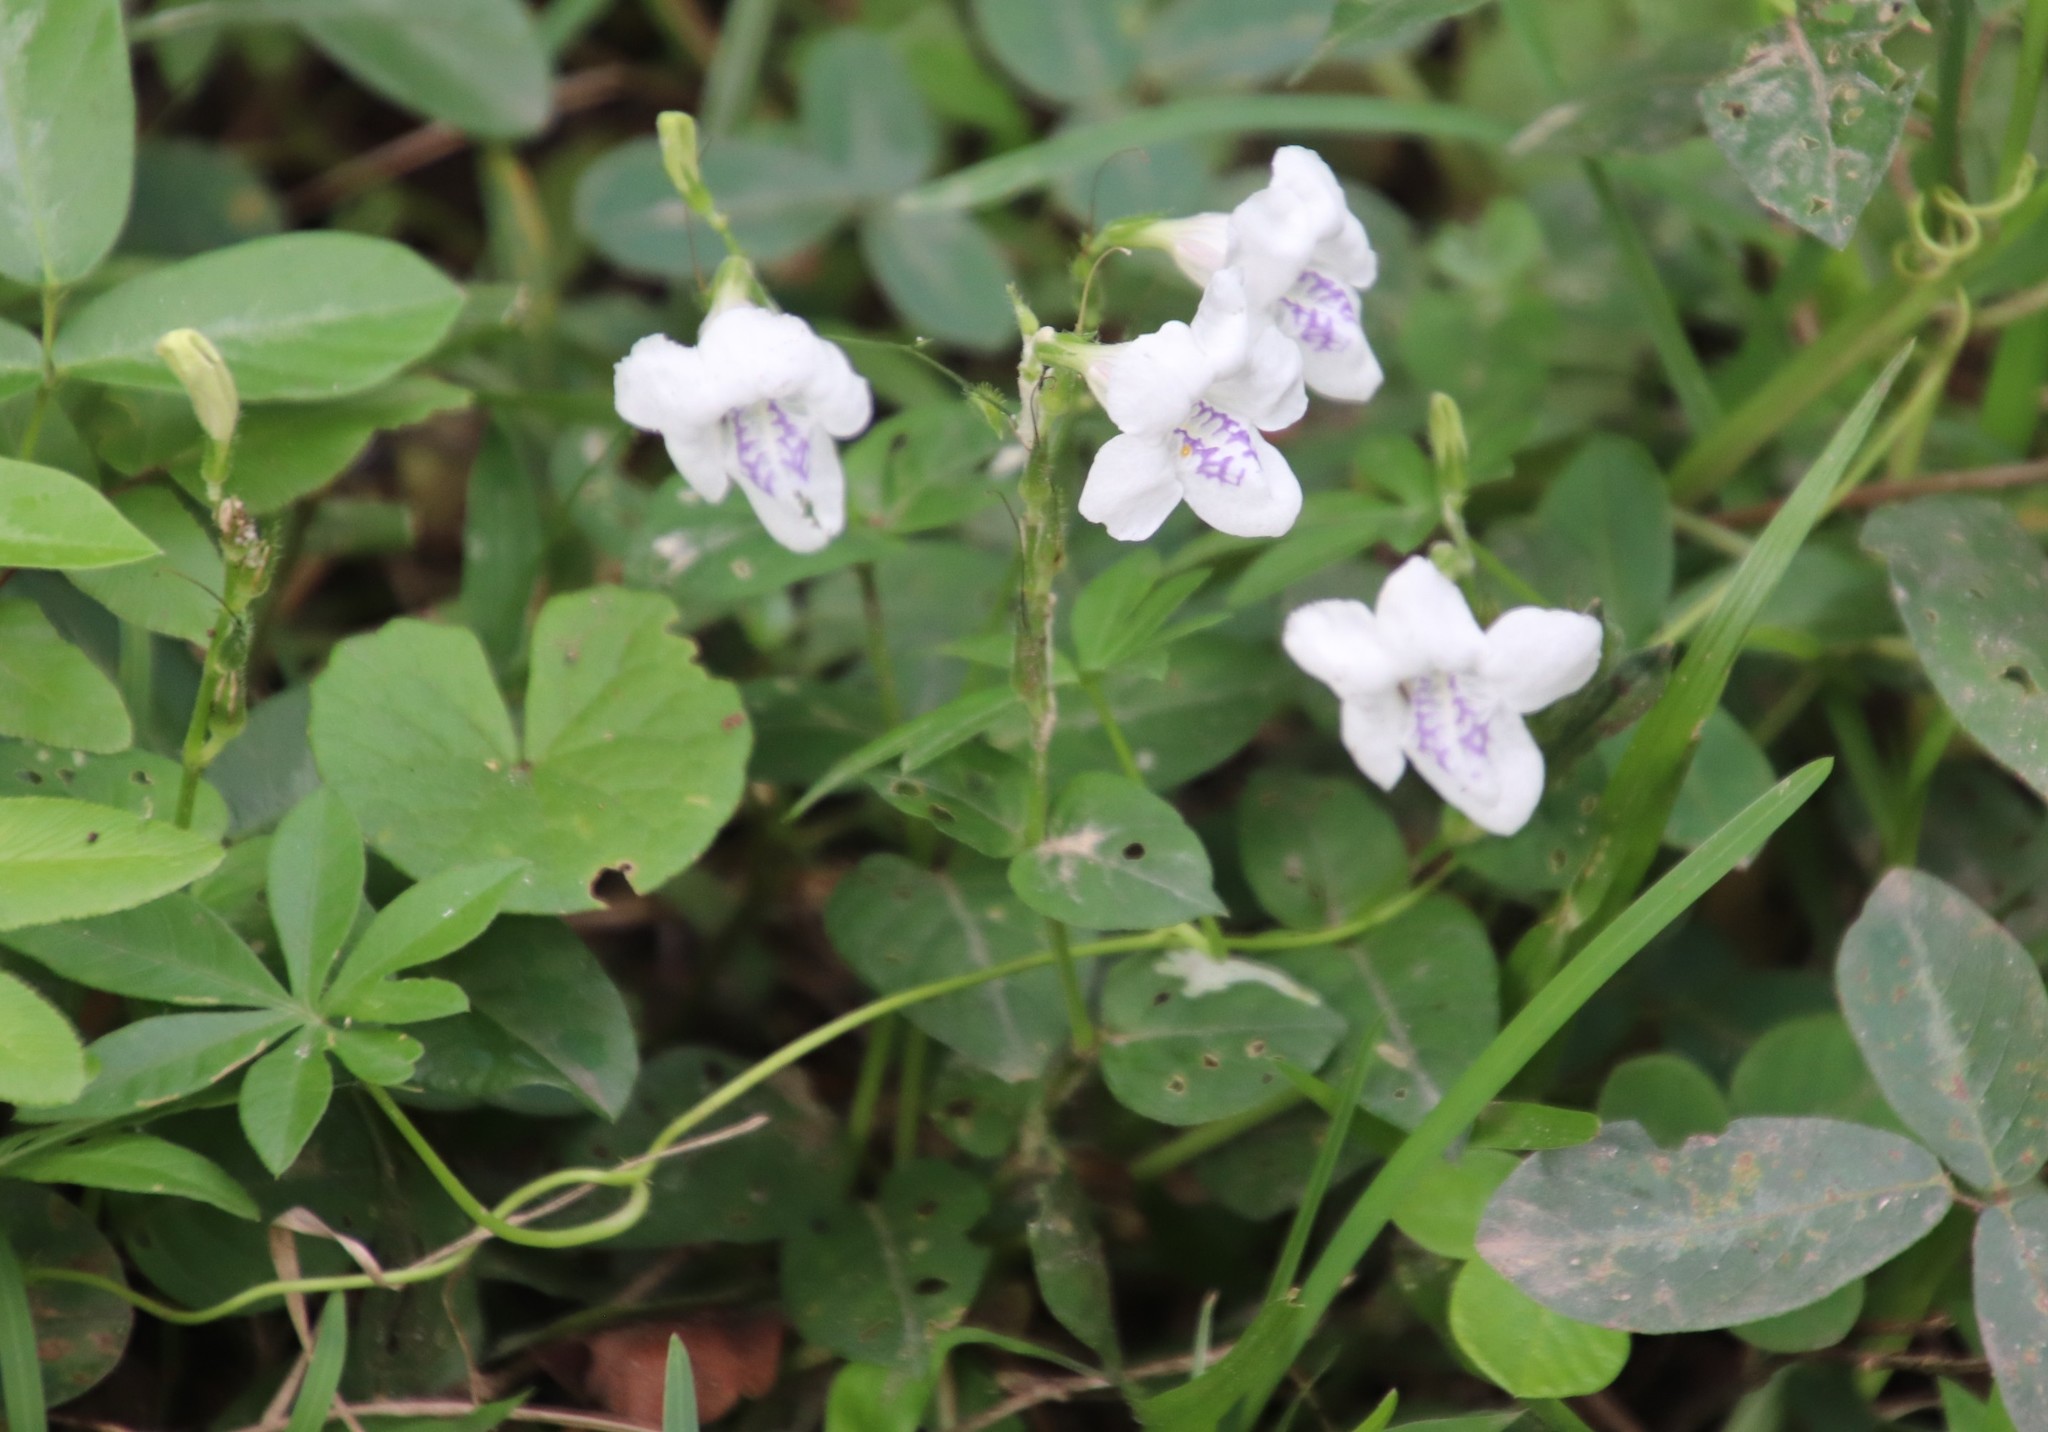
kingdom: Plantae
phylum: Tracheophyta
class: Magnoliopsida
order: Lamiales
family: Acanthaceae
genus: Asystasia
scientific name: Asystasia intrusa
